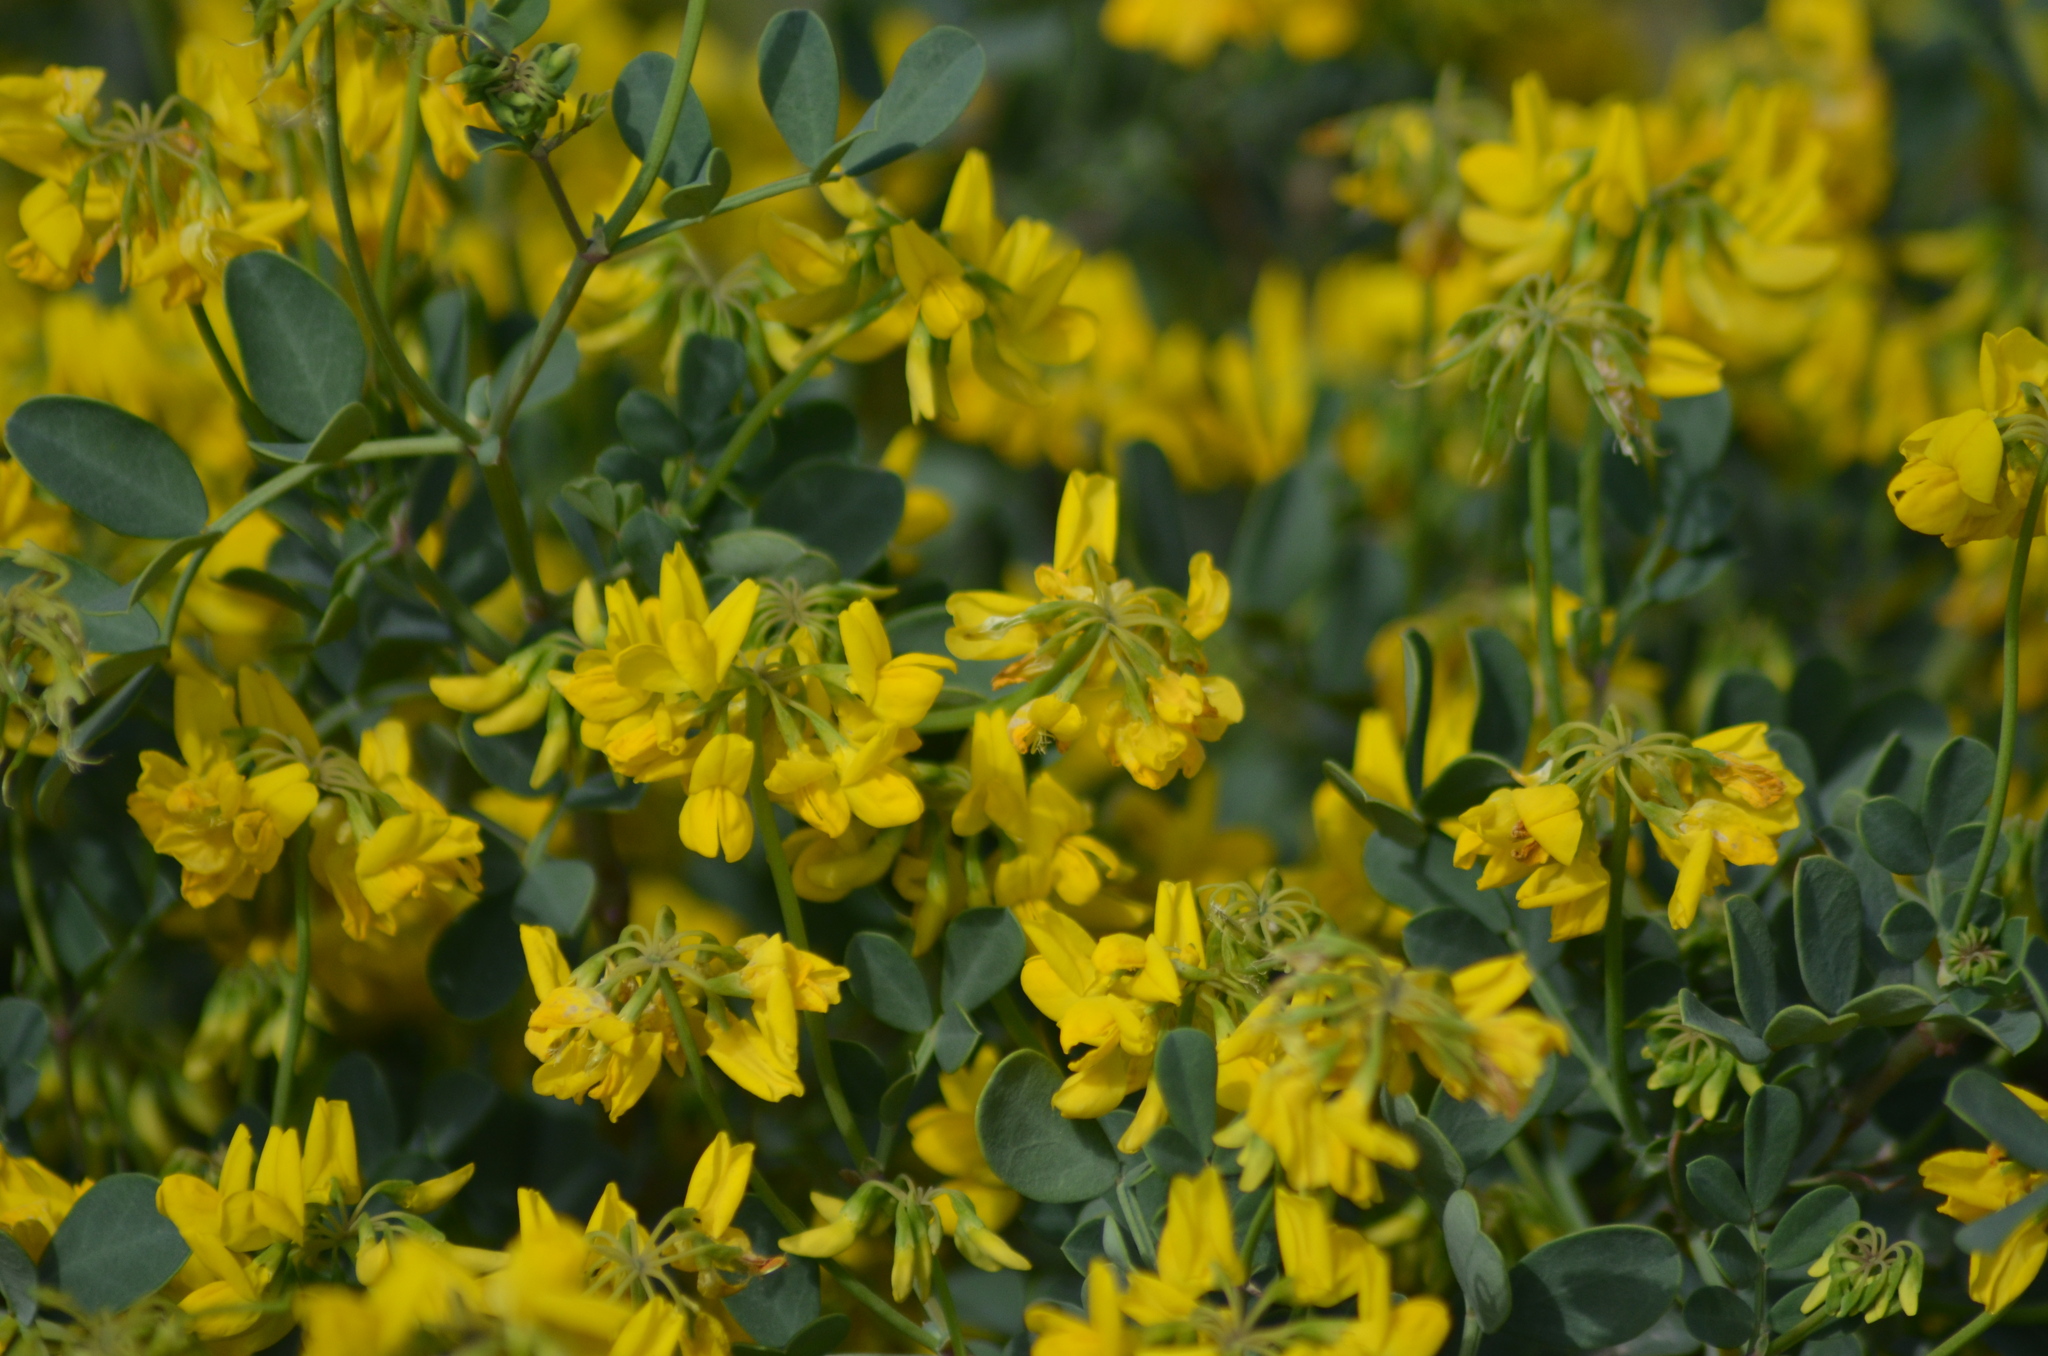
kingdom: Plantae
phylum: Tracheophyta
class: Magnoliopsida
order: Fabales
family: Fabaceae
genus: Coronilla
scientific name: Coronilla valentina
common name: Shrubby scorpion-vetch
